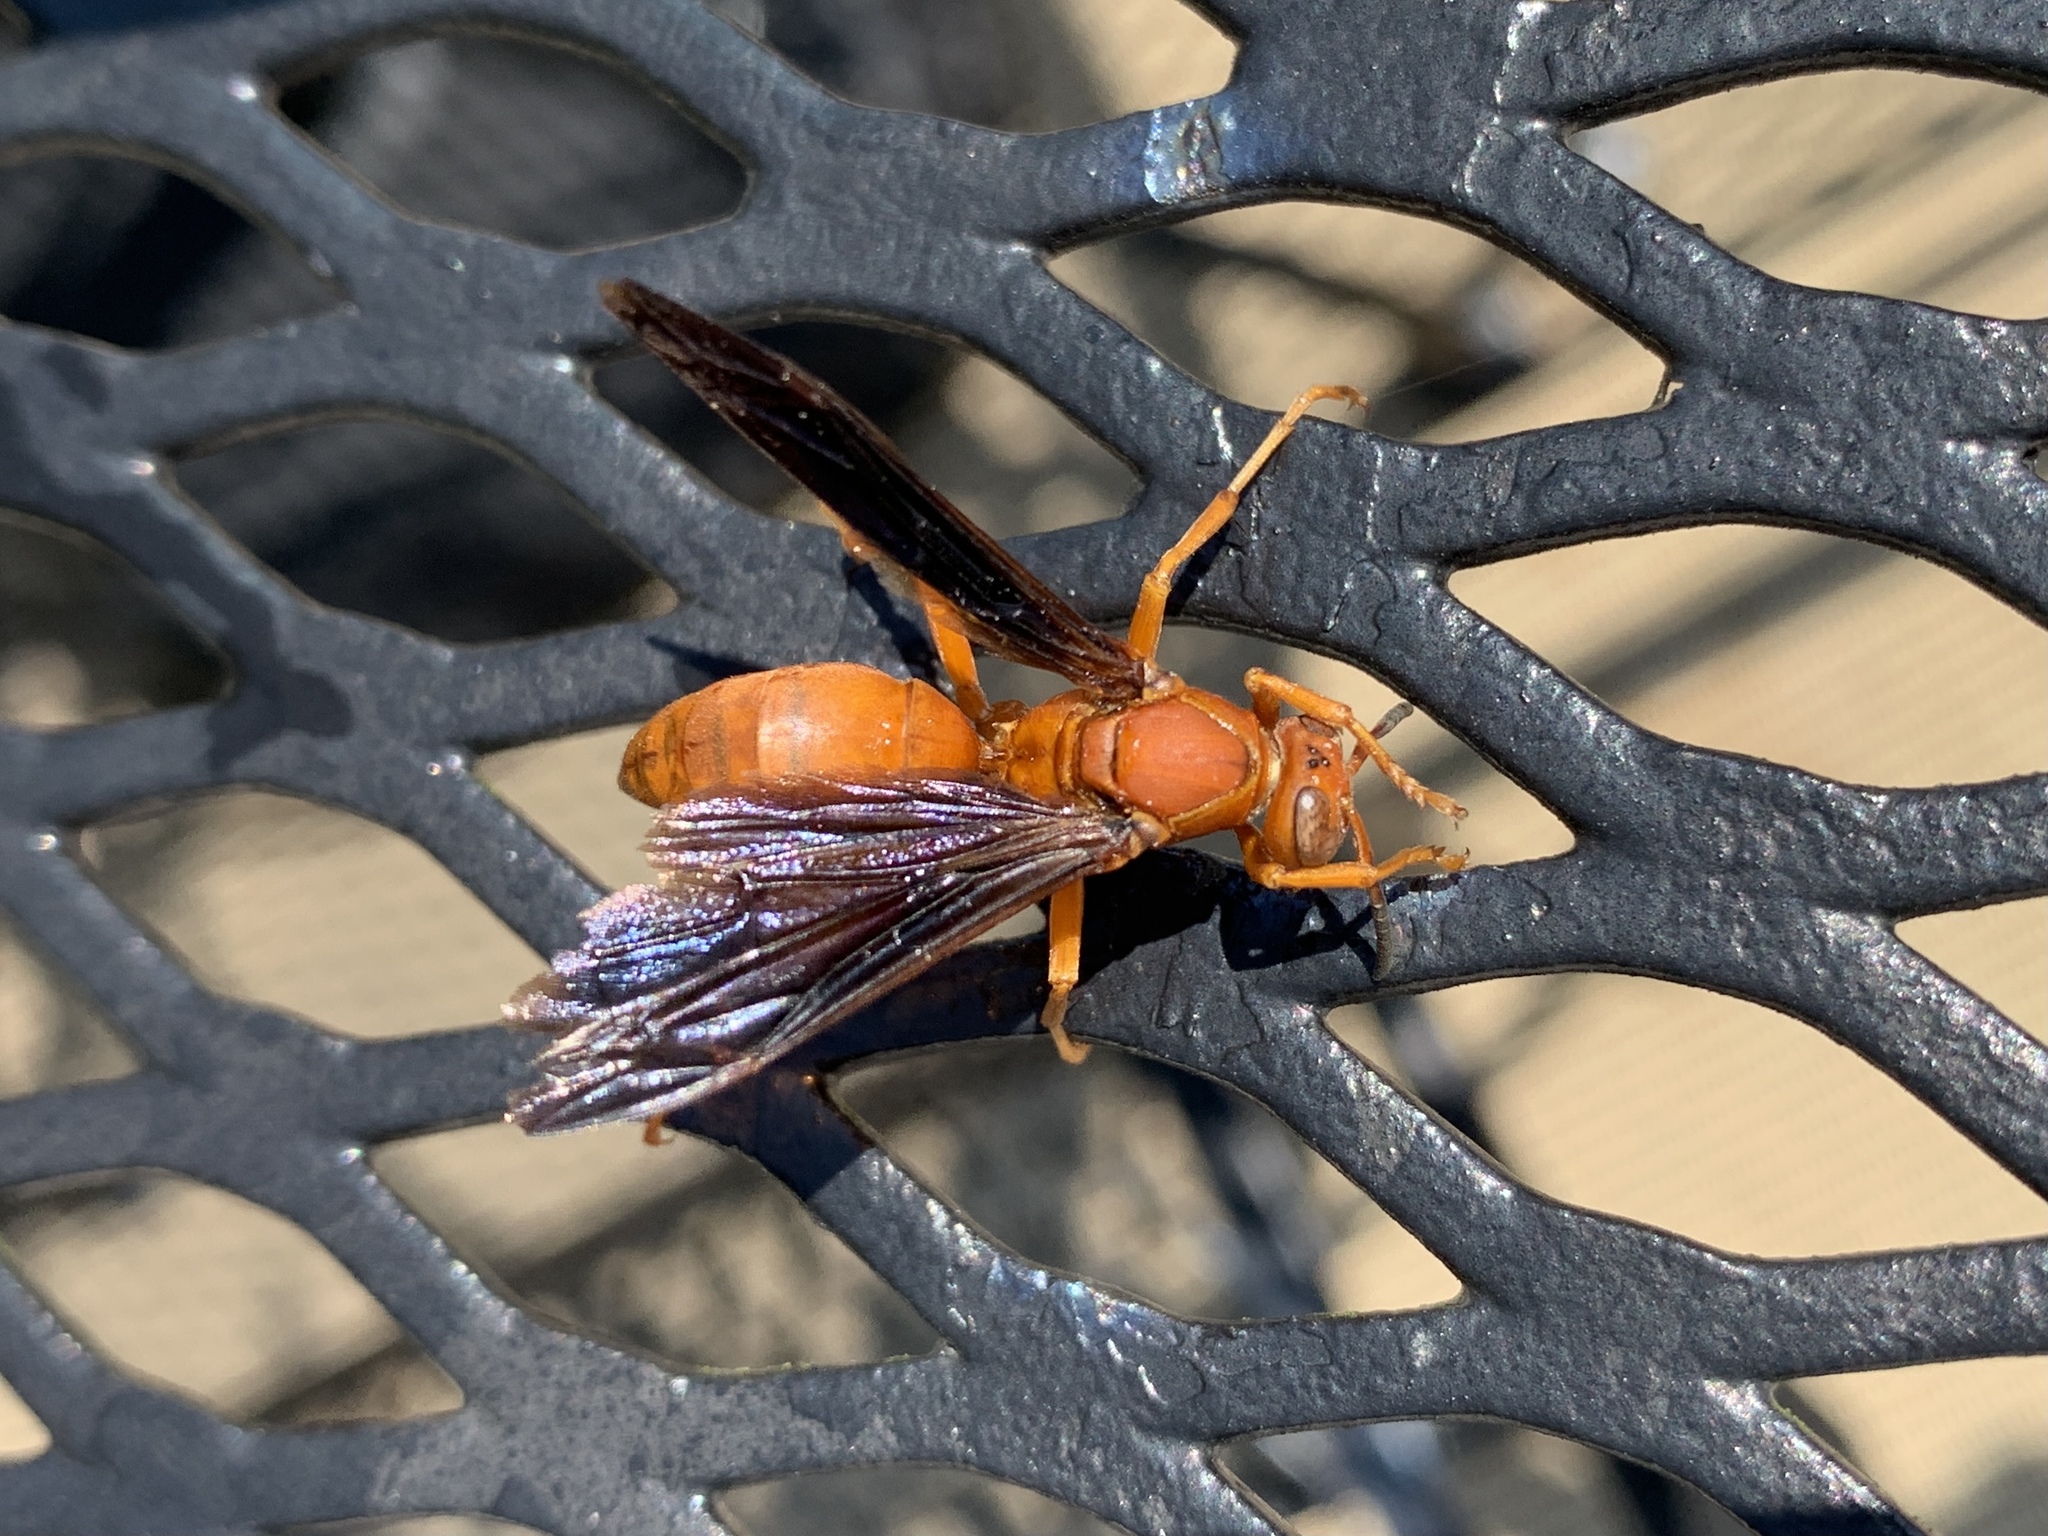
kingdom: Animalia
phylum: Arthropoda
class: Insecta
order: Hymenoptera
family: Eumenidae
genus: Polistes
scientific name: Polistes carolina
